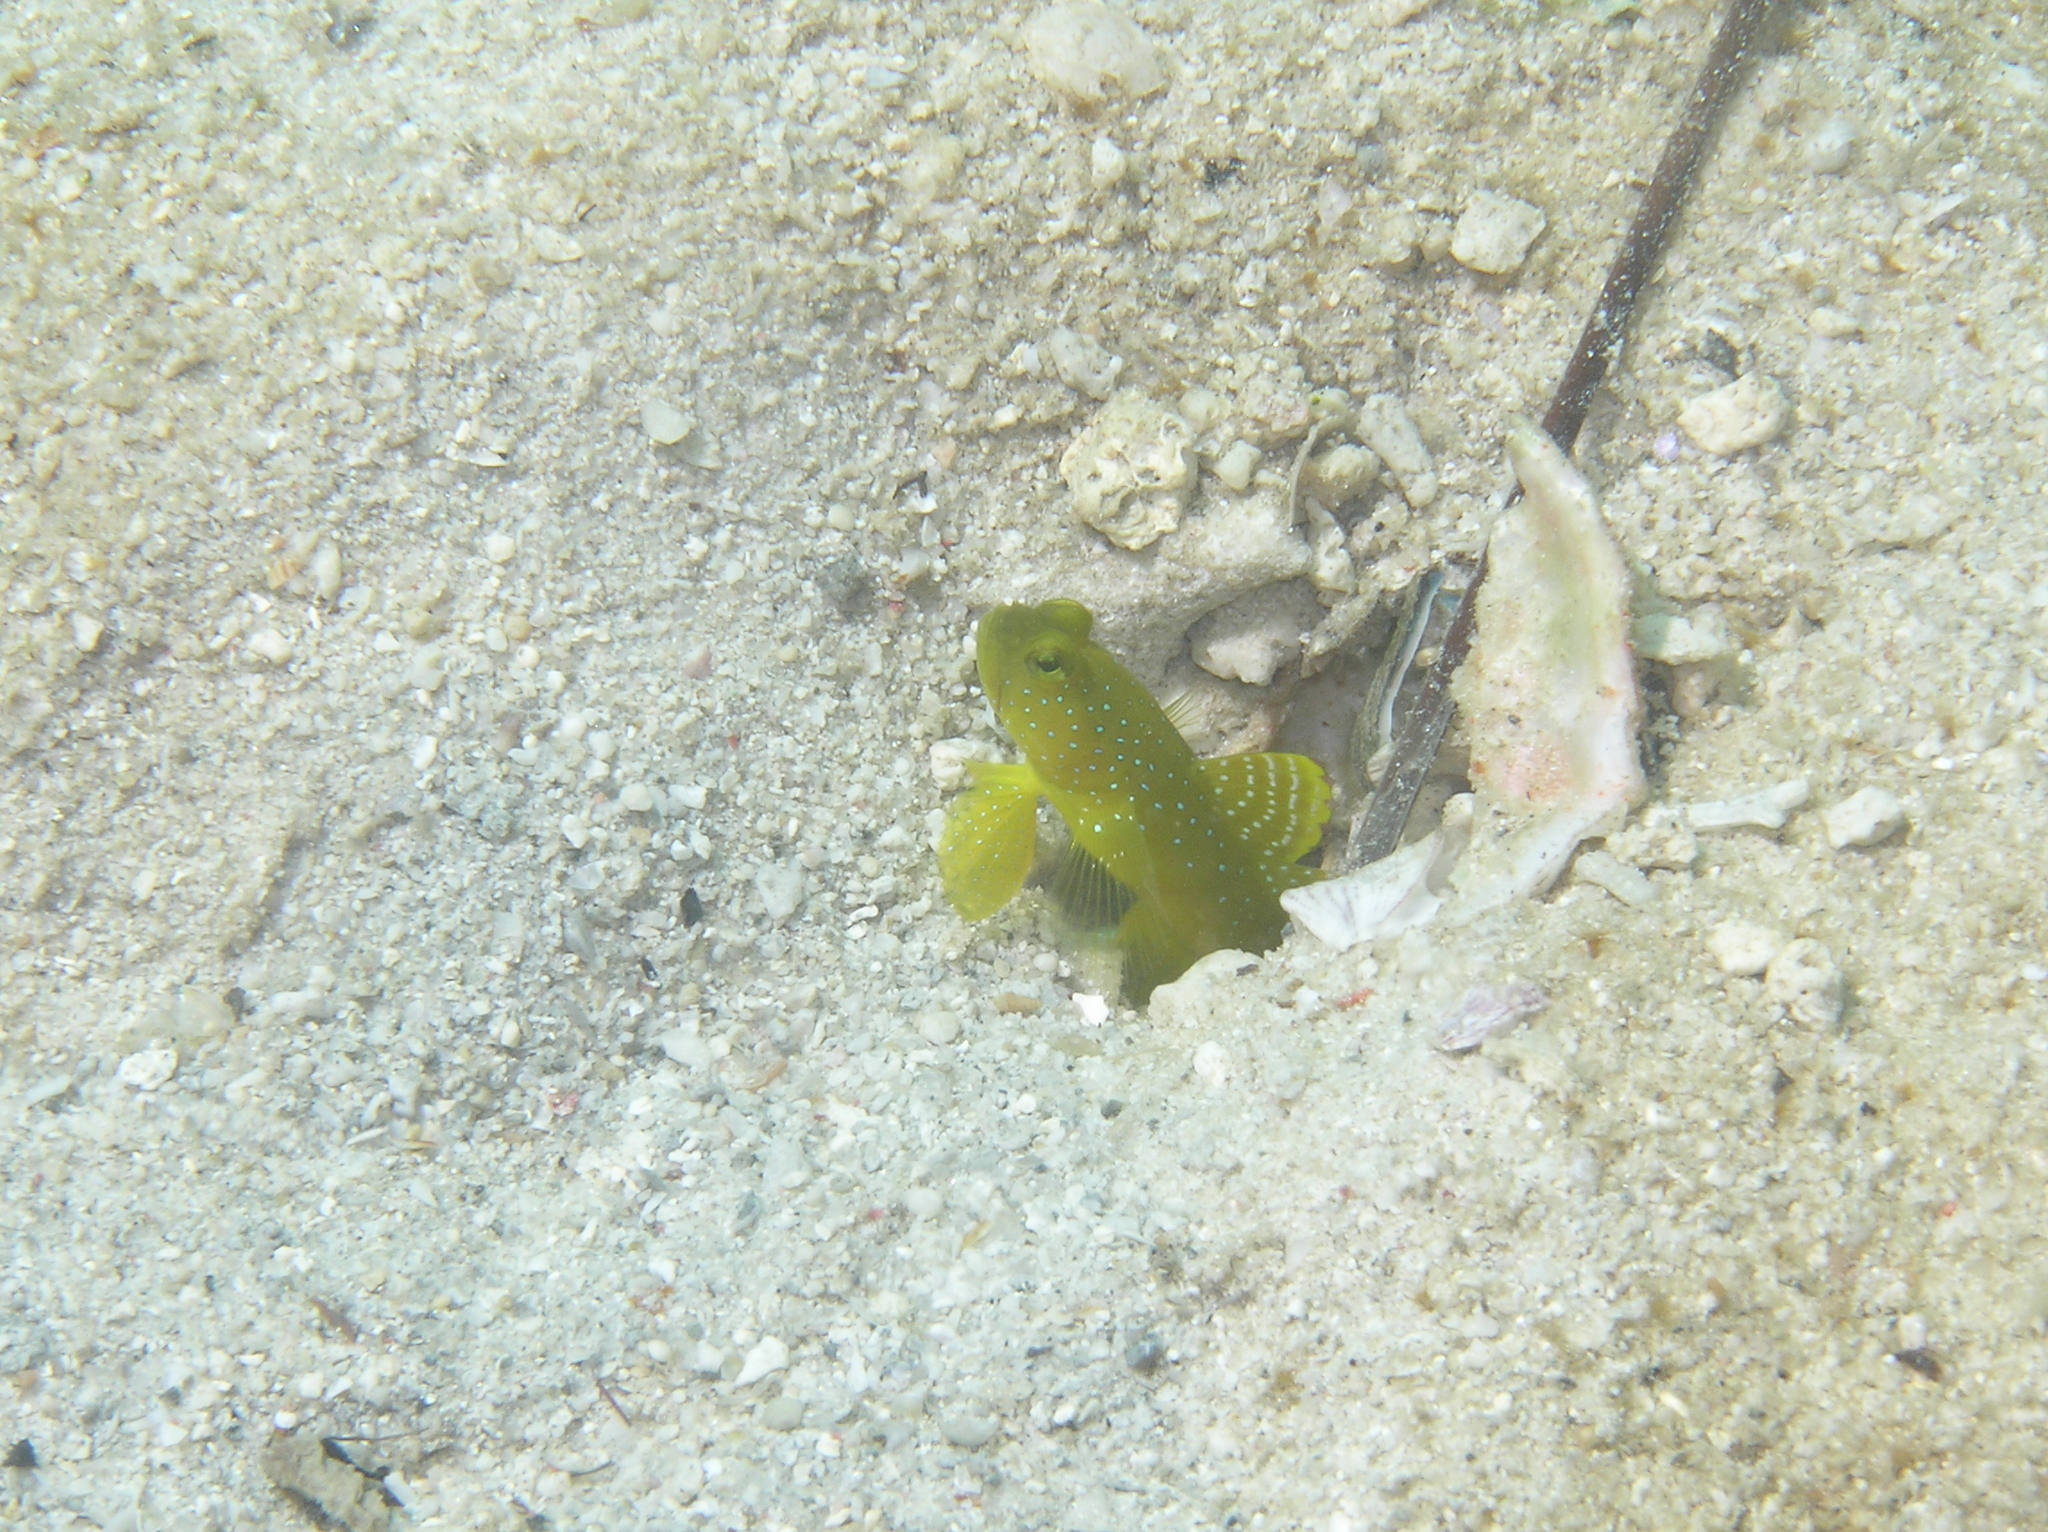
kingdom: Animalia
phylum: Chordata
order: Perciformes
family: Gobiidae
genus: Cryptocentrus
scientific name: Cryptocentrus cinctus
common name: Yellow shrimp goby
